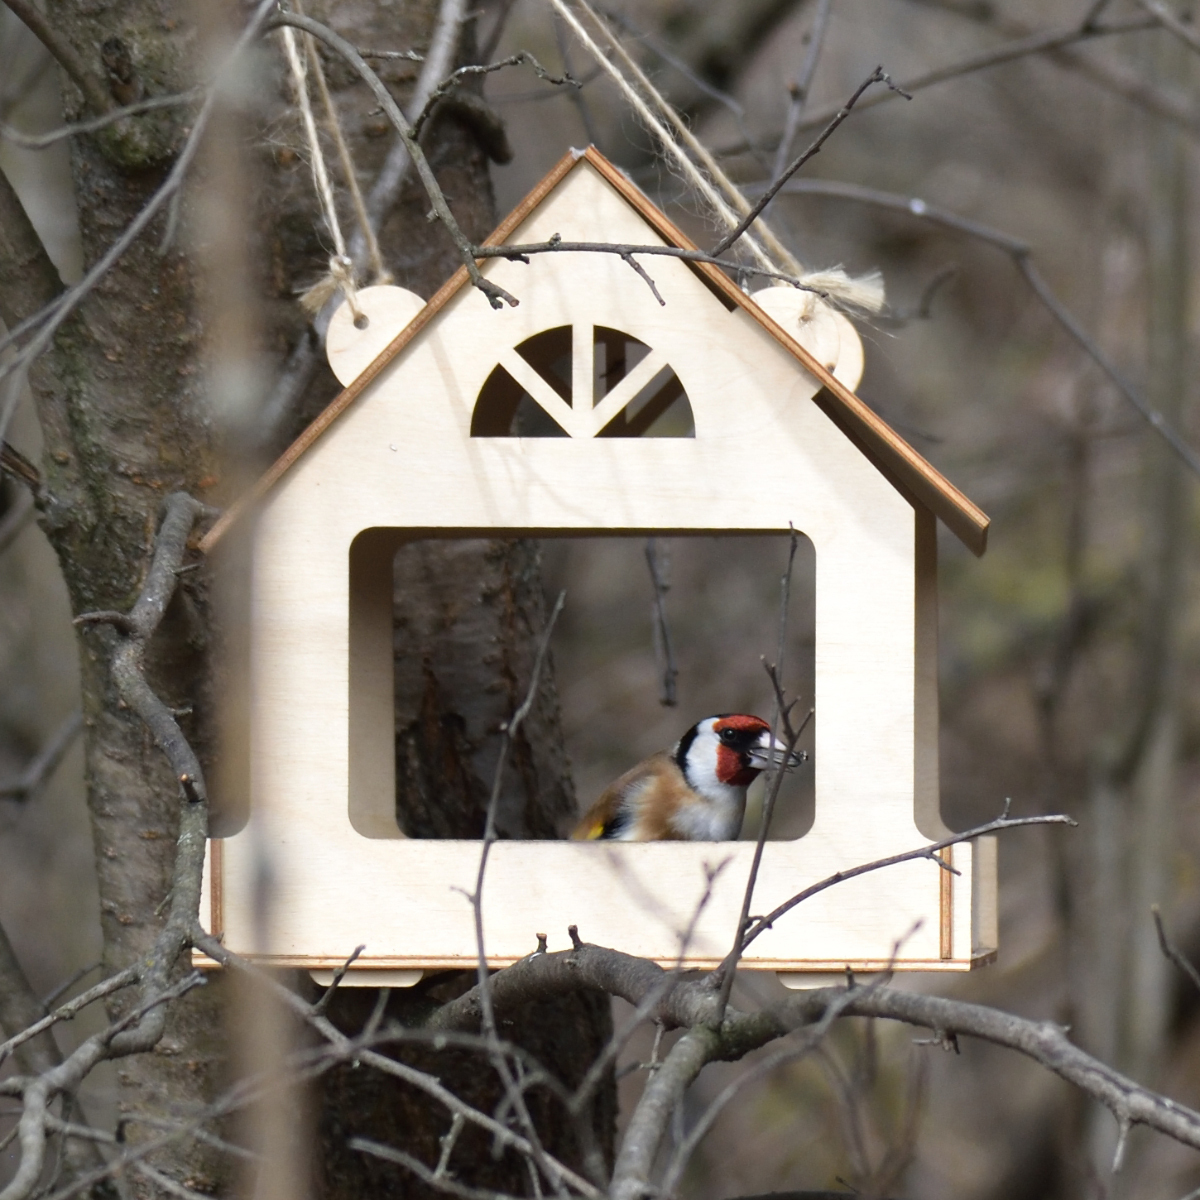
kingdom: Animalia
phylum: Chordata
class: Aves
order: Passeriformes
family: Fringillidae
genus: Carduelis
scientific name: Carduelis carduelis
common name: European goldfinch
